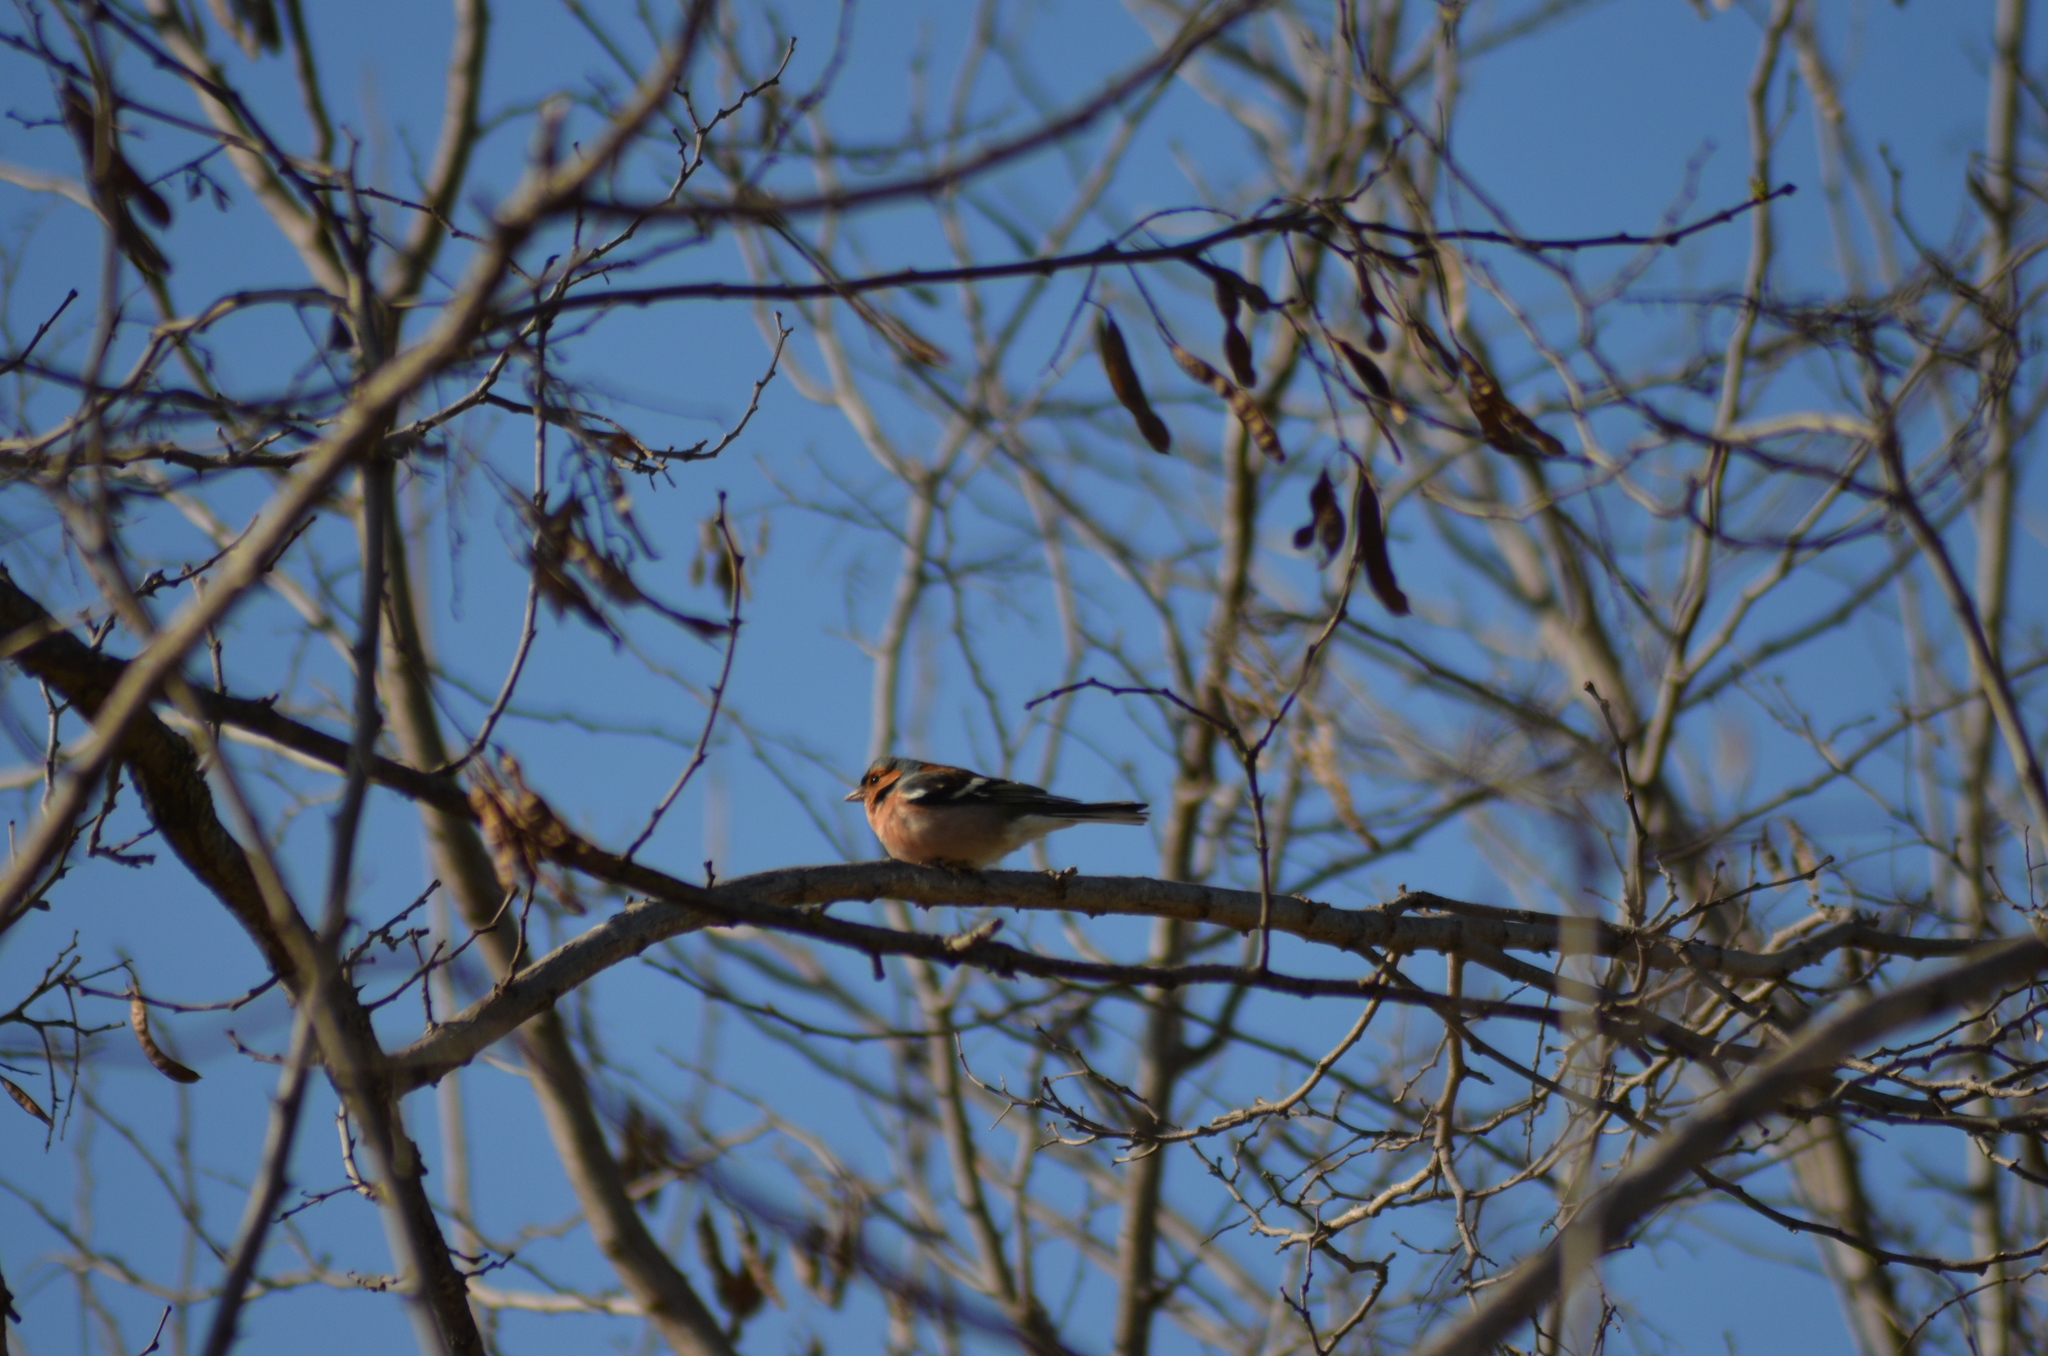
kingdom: Animalia
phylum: Chordata
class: Aves
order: Passeriformes
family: Fringillidae
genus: Fringilla
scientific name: Fringilla coelebs
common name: Common chaffinch
